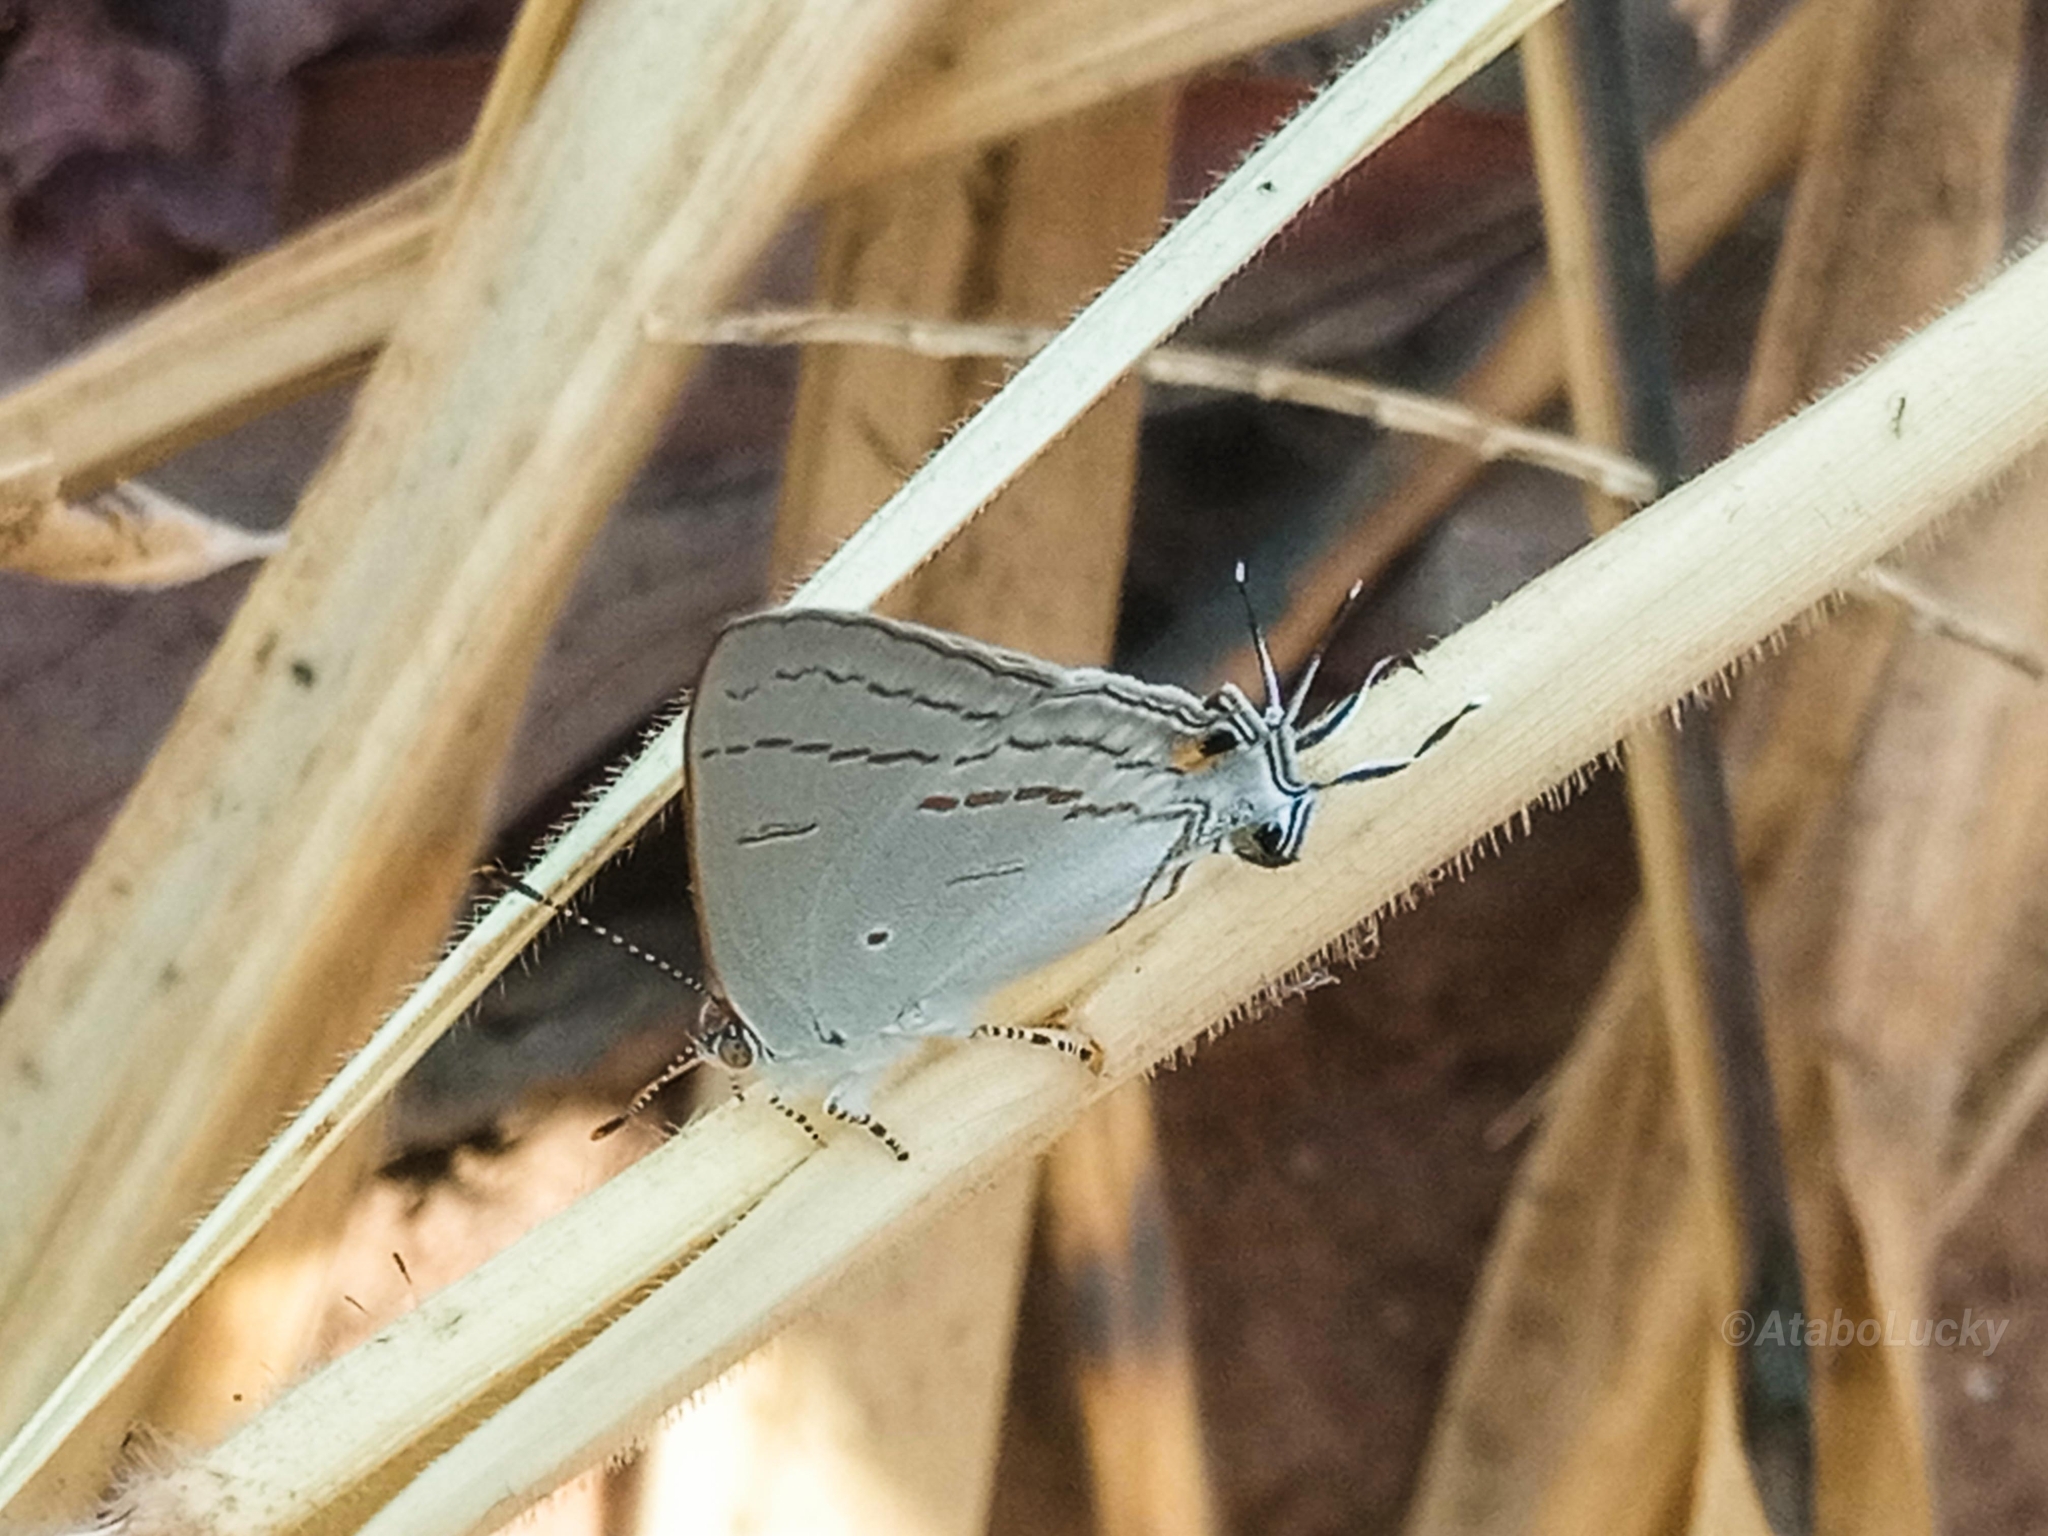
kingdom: Animalia
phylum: Arthropoda
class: Insecta
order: Lepidoptera
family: Lycaenidae
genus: Hypolycaena
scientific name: Hypolycaena philippus
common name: Common hairstreak
